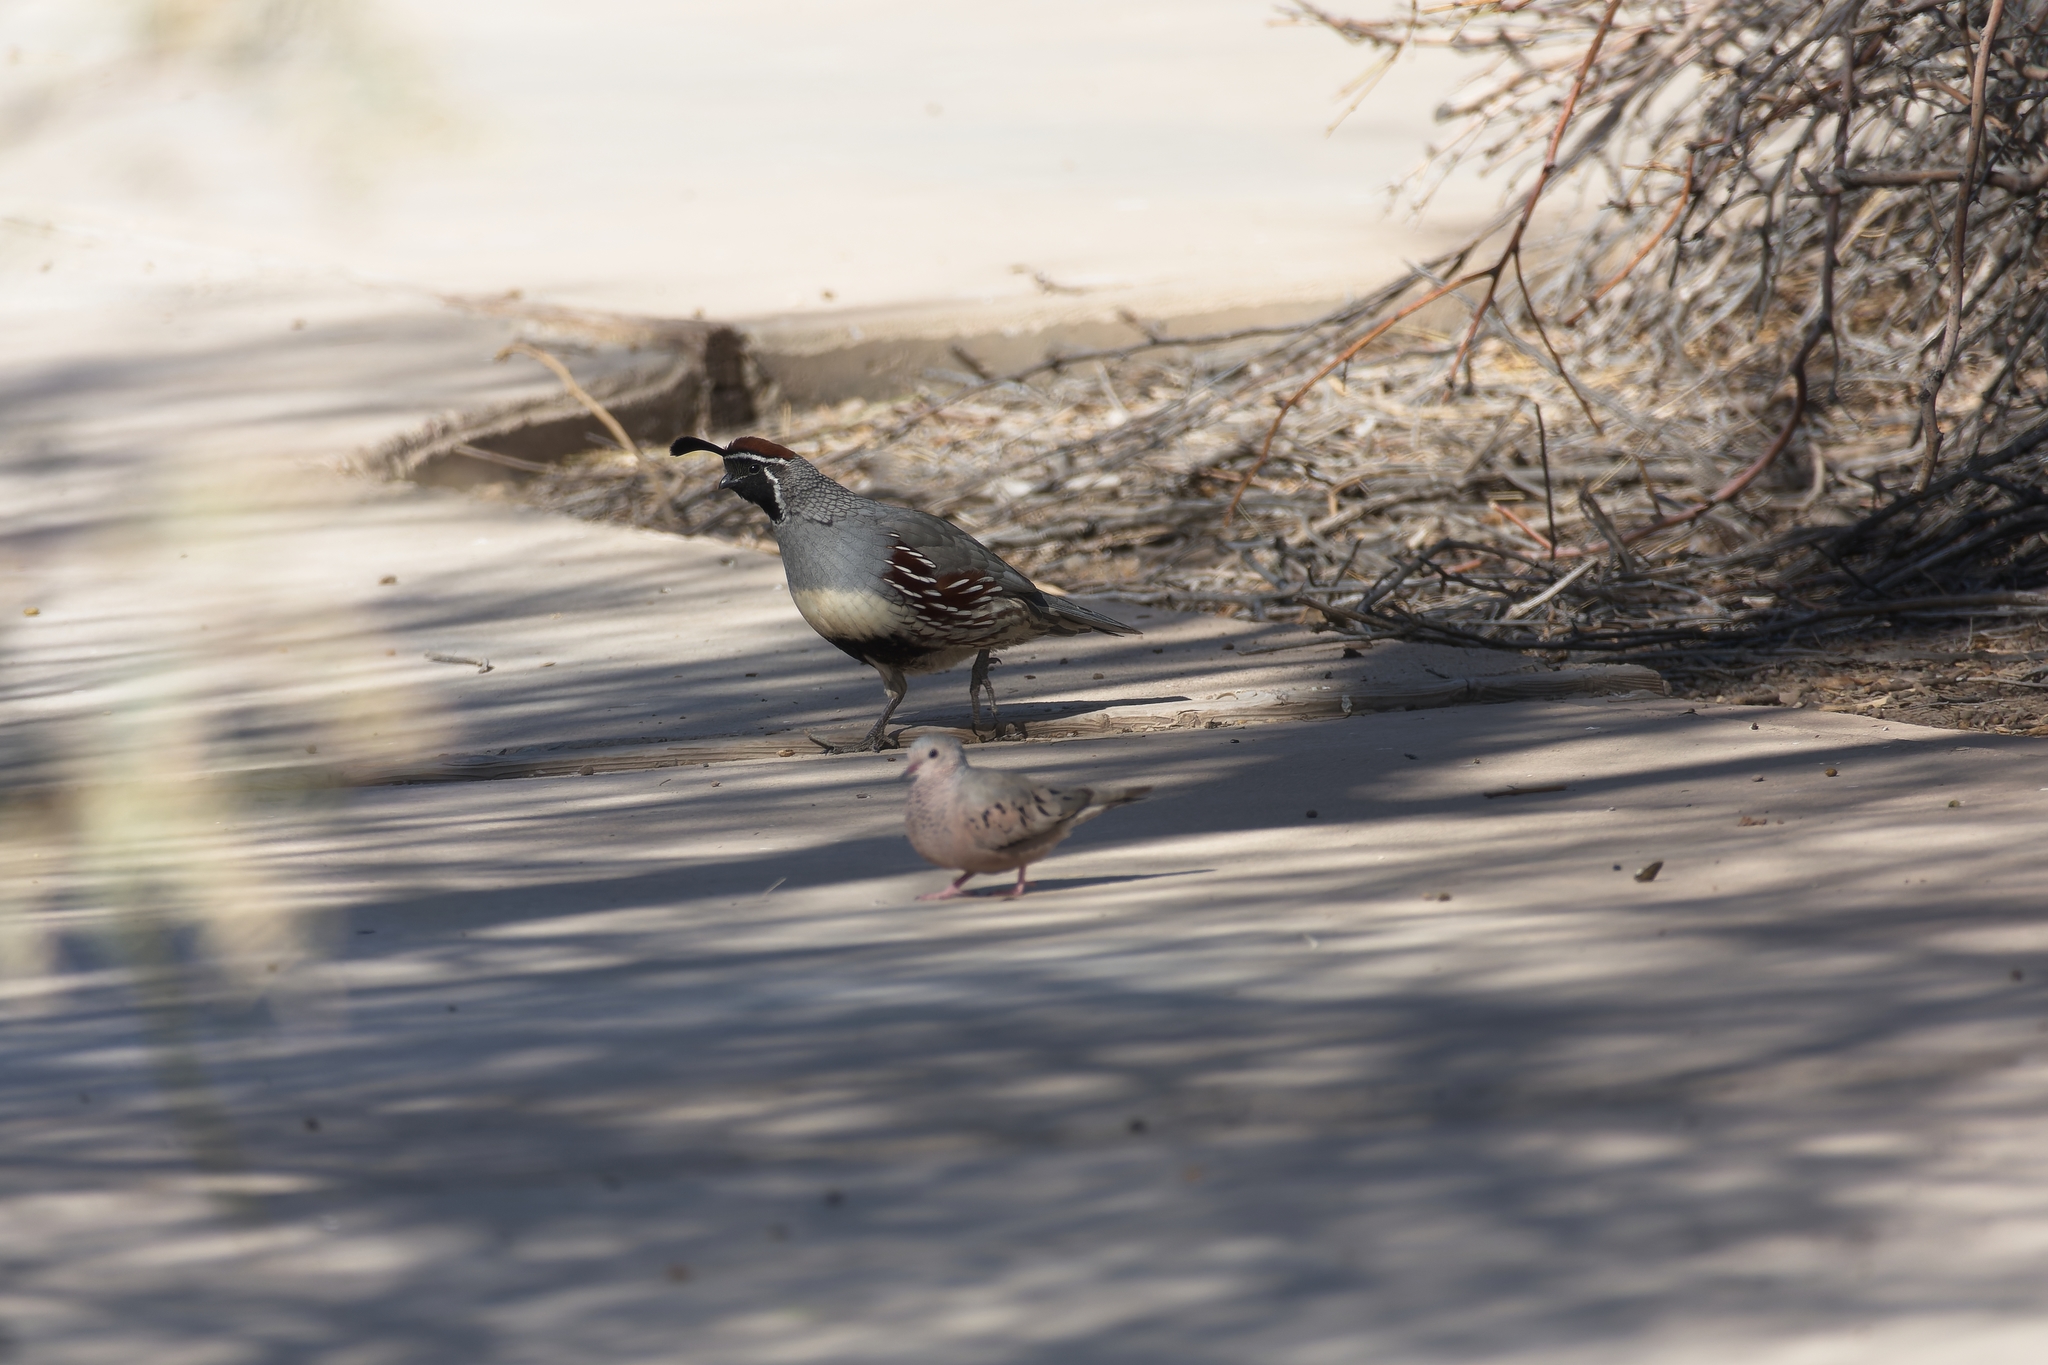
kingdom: Animalia
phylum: Chordata
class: Aves
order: Galliformes
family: Odontophoridae
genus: Callipepla
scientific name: Callipepla gambelii
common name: Gambel's quail
